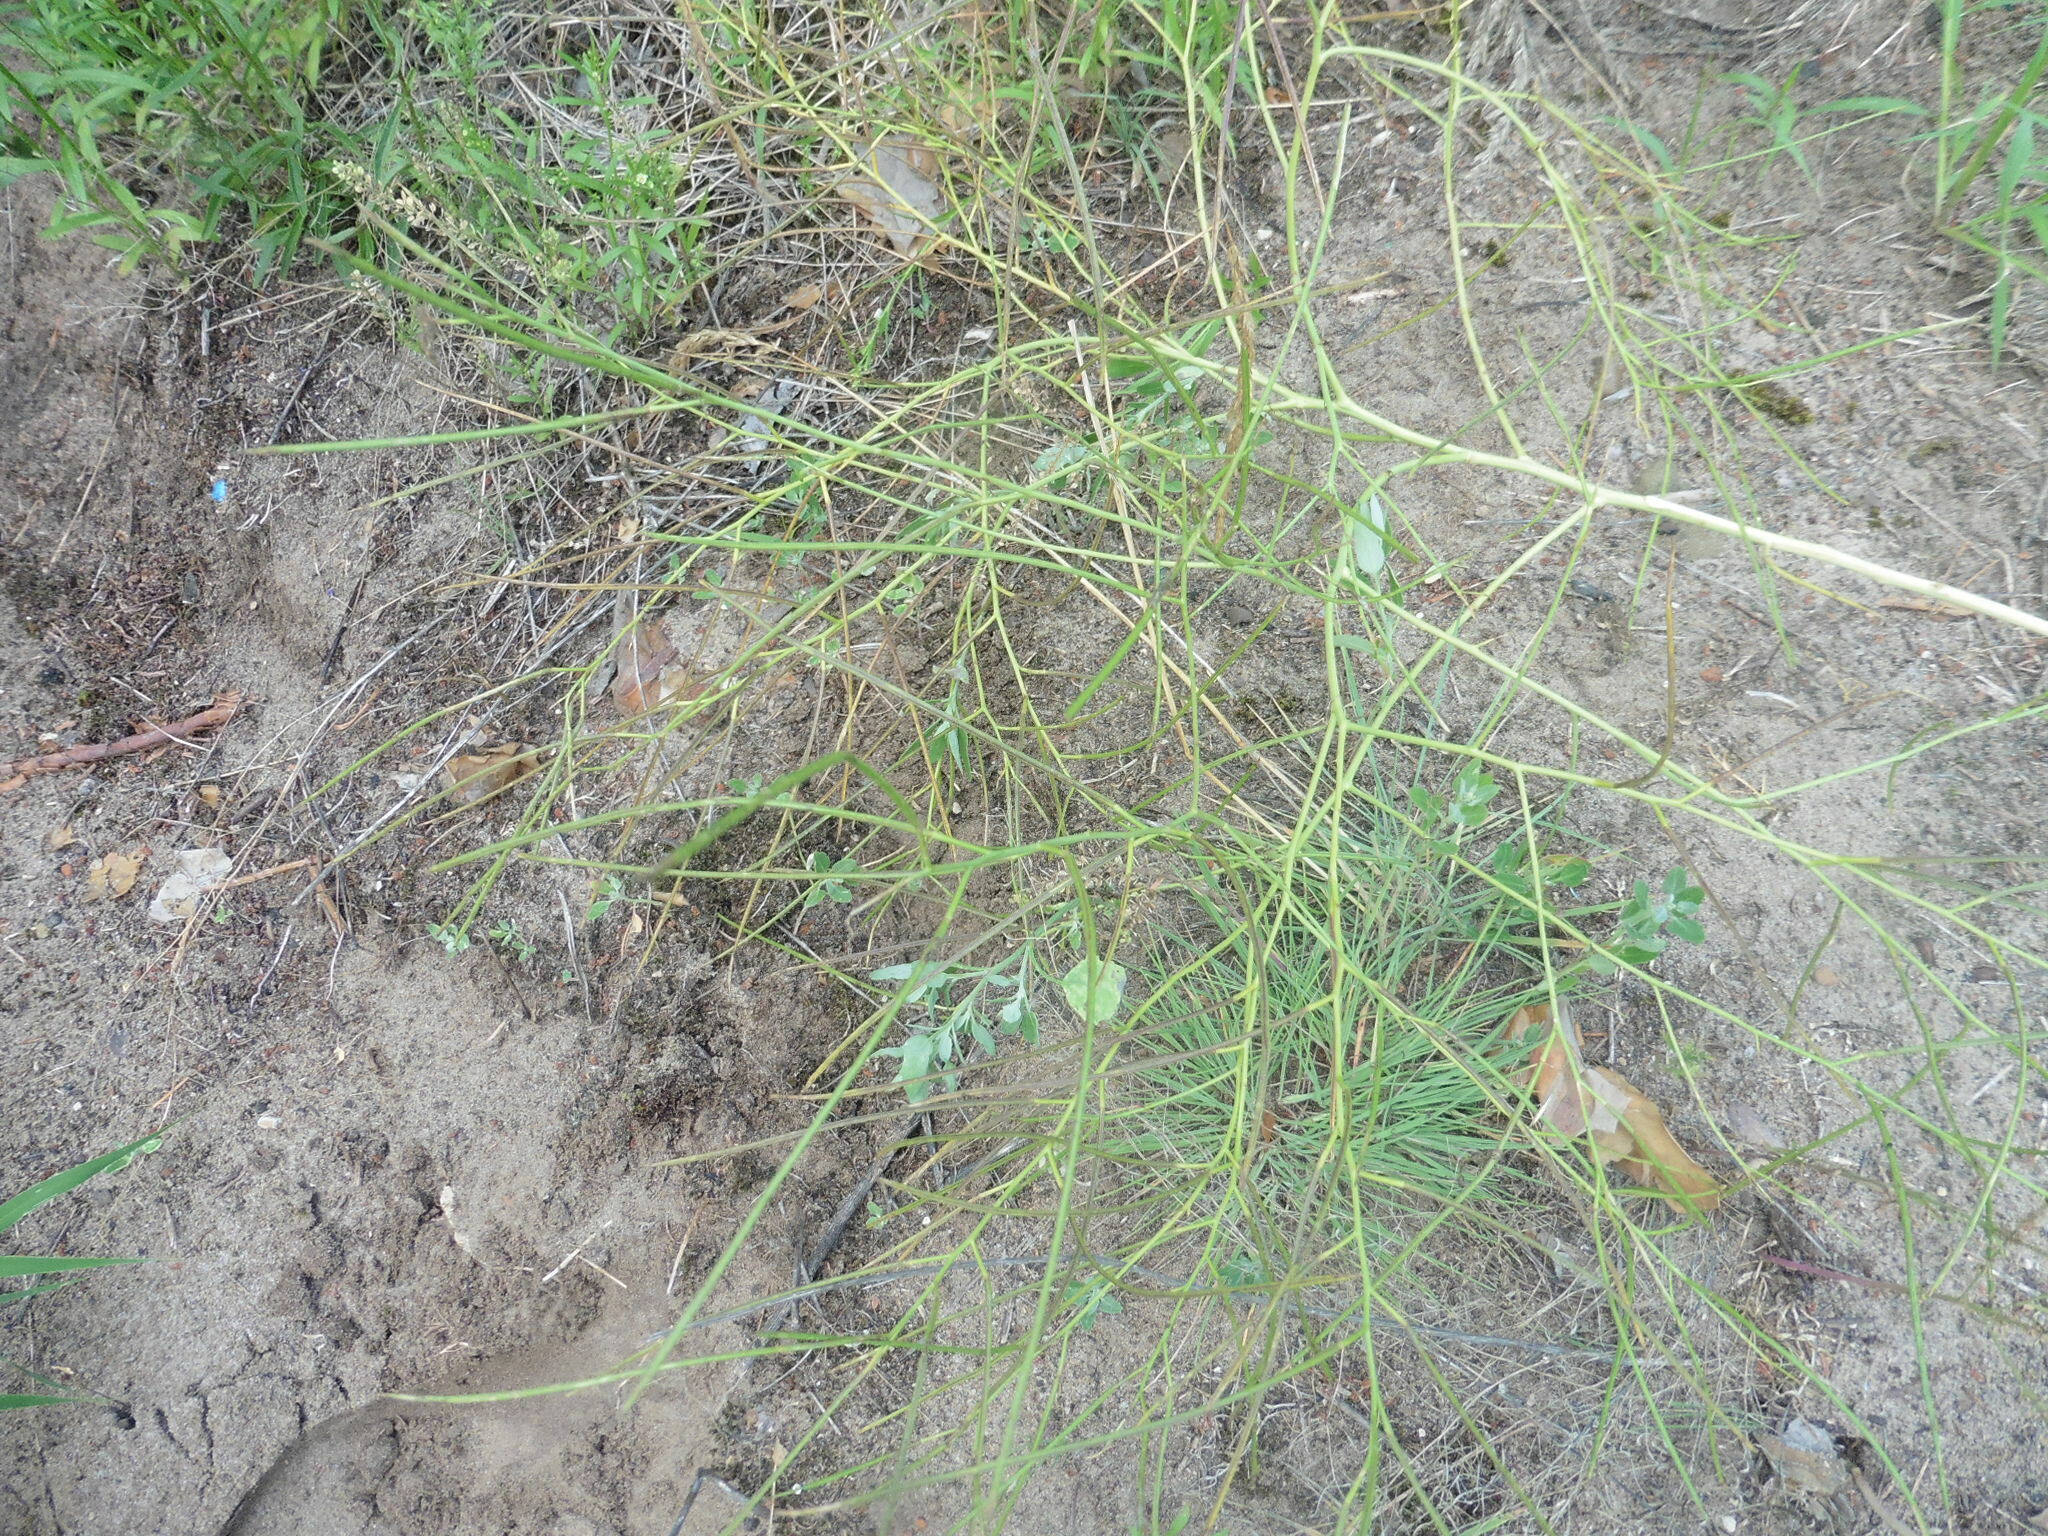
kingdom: Plantae
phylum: Tracheophyta
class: Magnoliopsida
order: Brassicales
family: Brassicaceae
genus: Sisymbrium
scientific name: Sisymbrium altissimum
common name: Tall rocket
